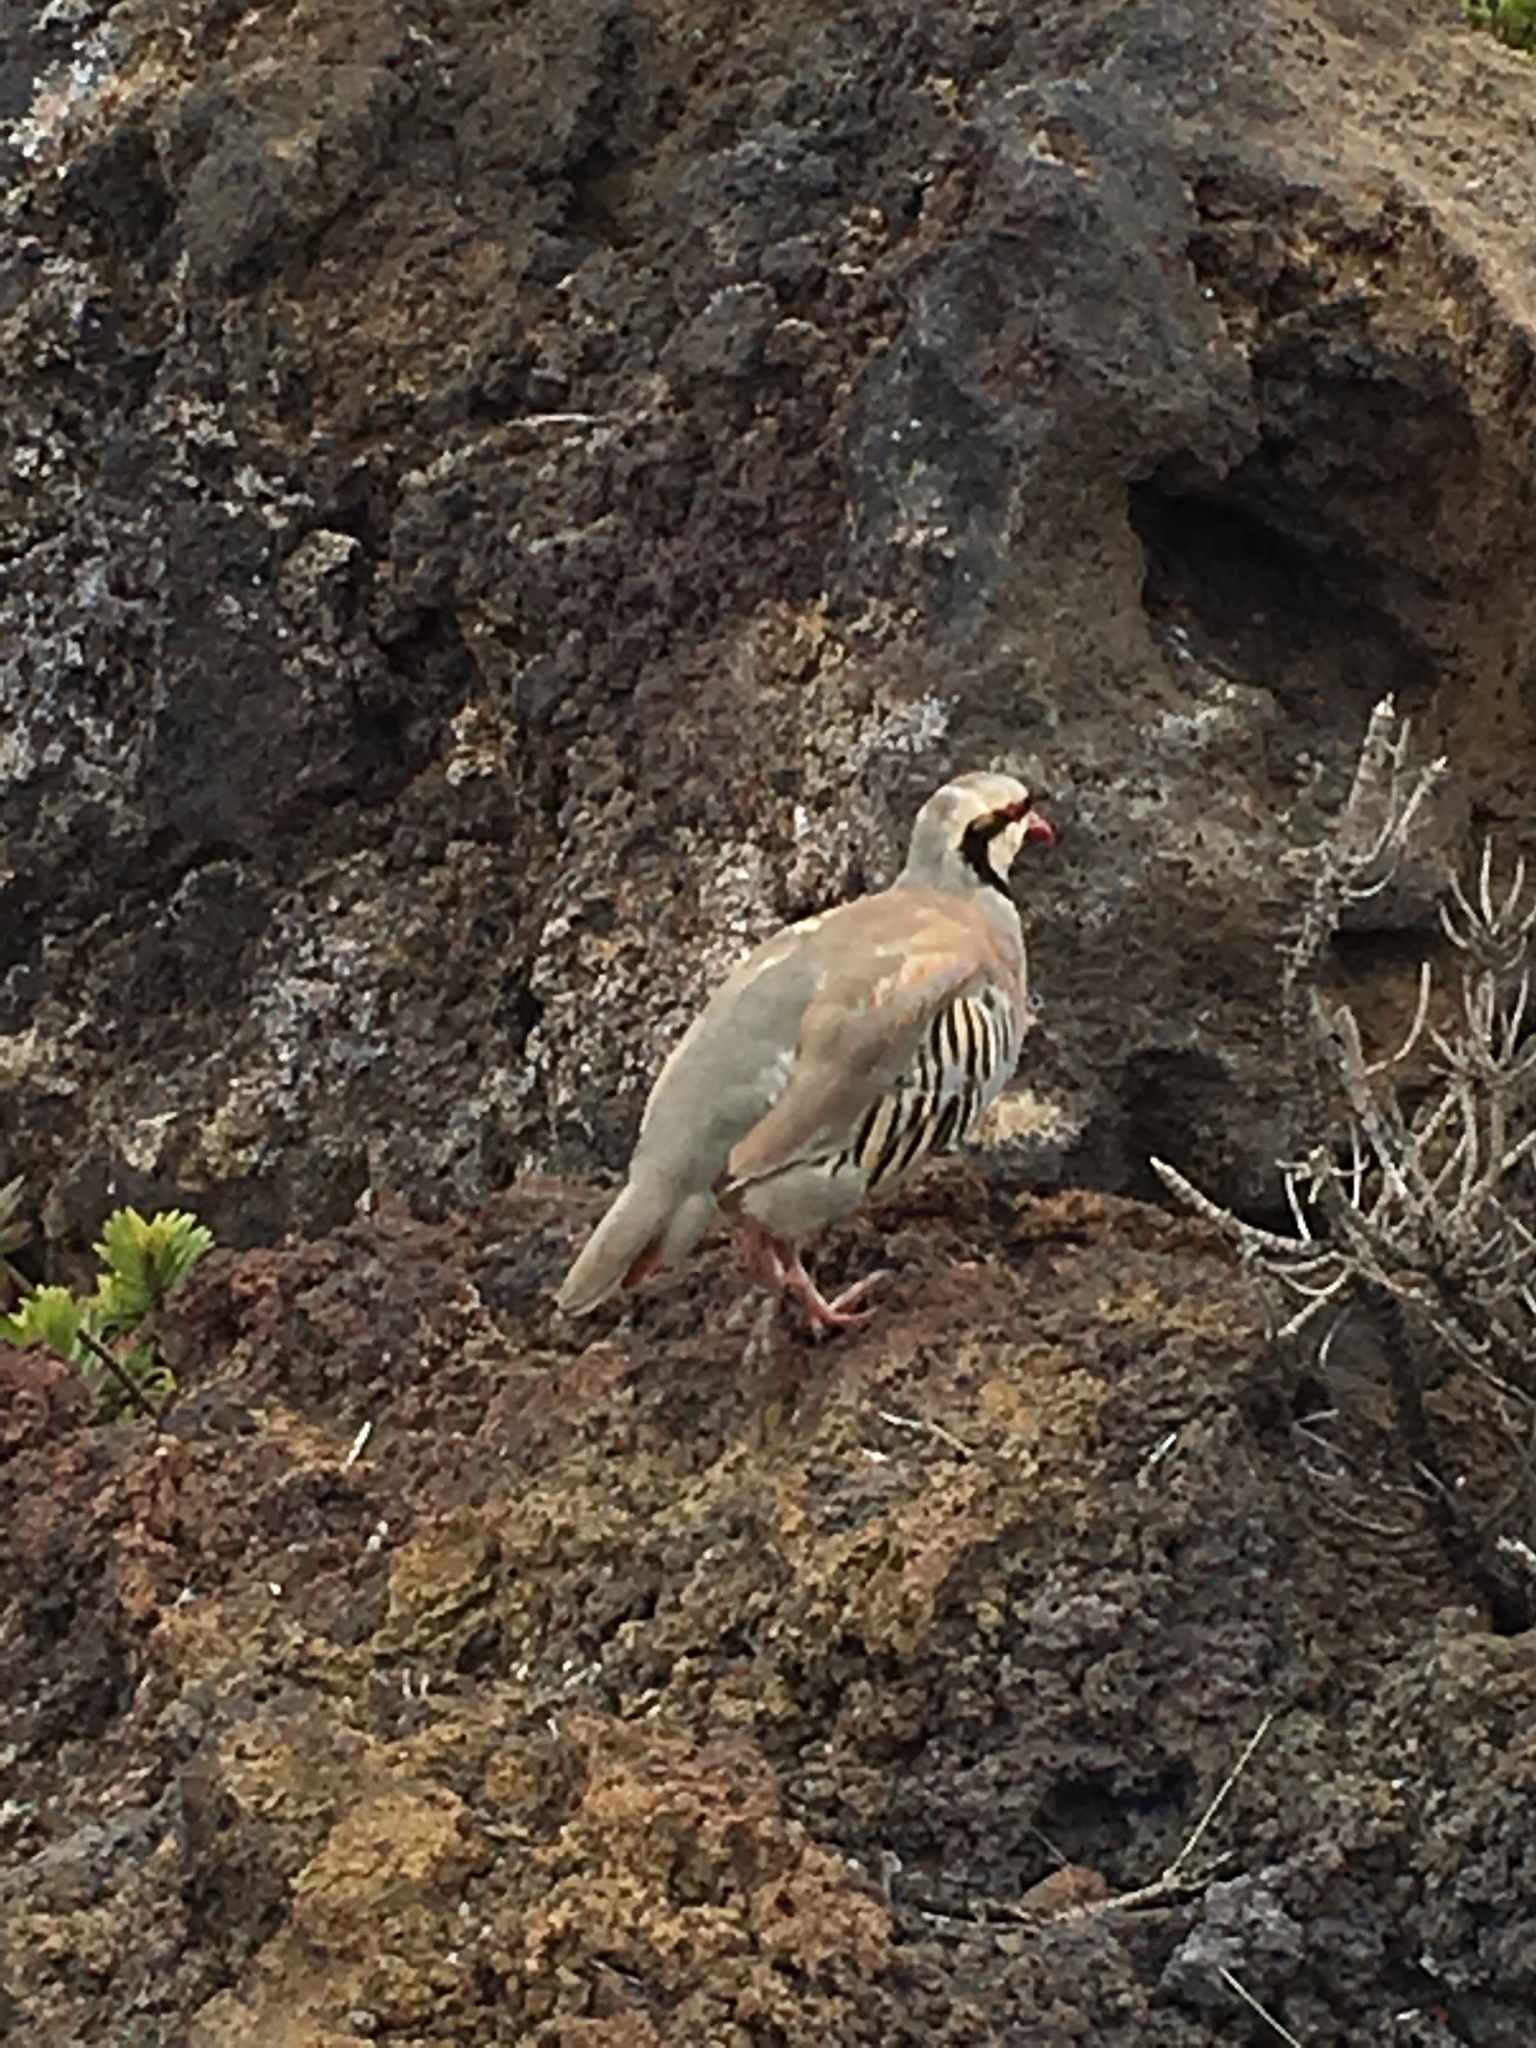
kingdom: Animalia
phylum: Chordata
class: Aves
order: Galliformes
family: Phasianidae
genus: Alectoris
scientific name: Alectoris chukar
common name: Chukar
